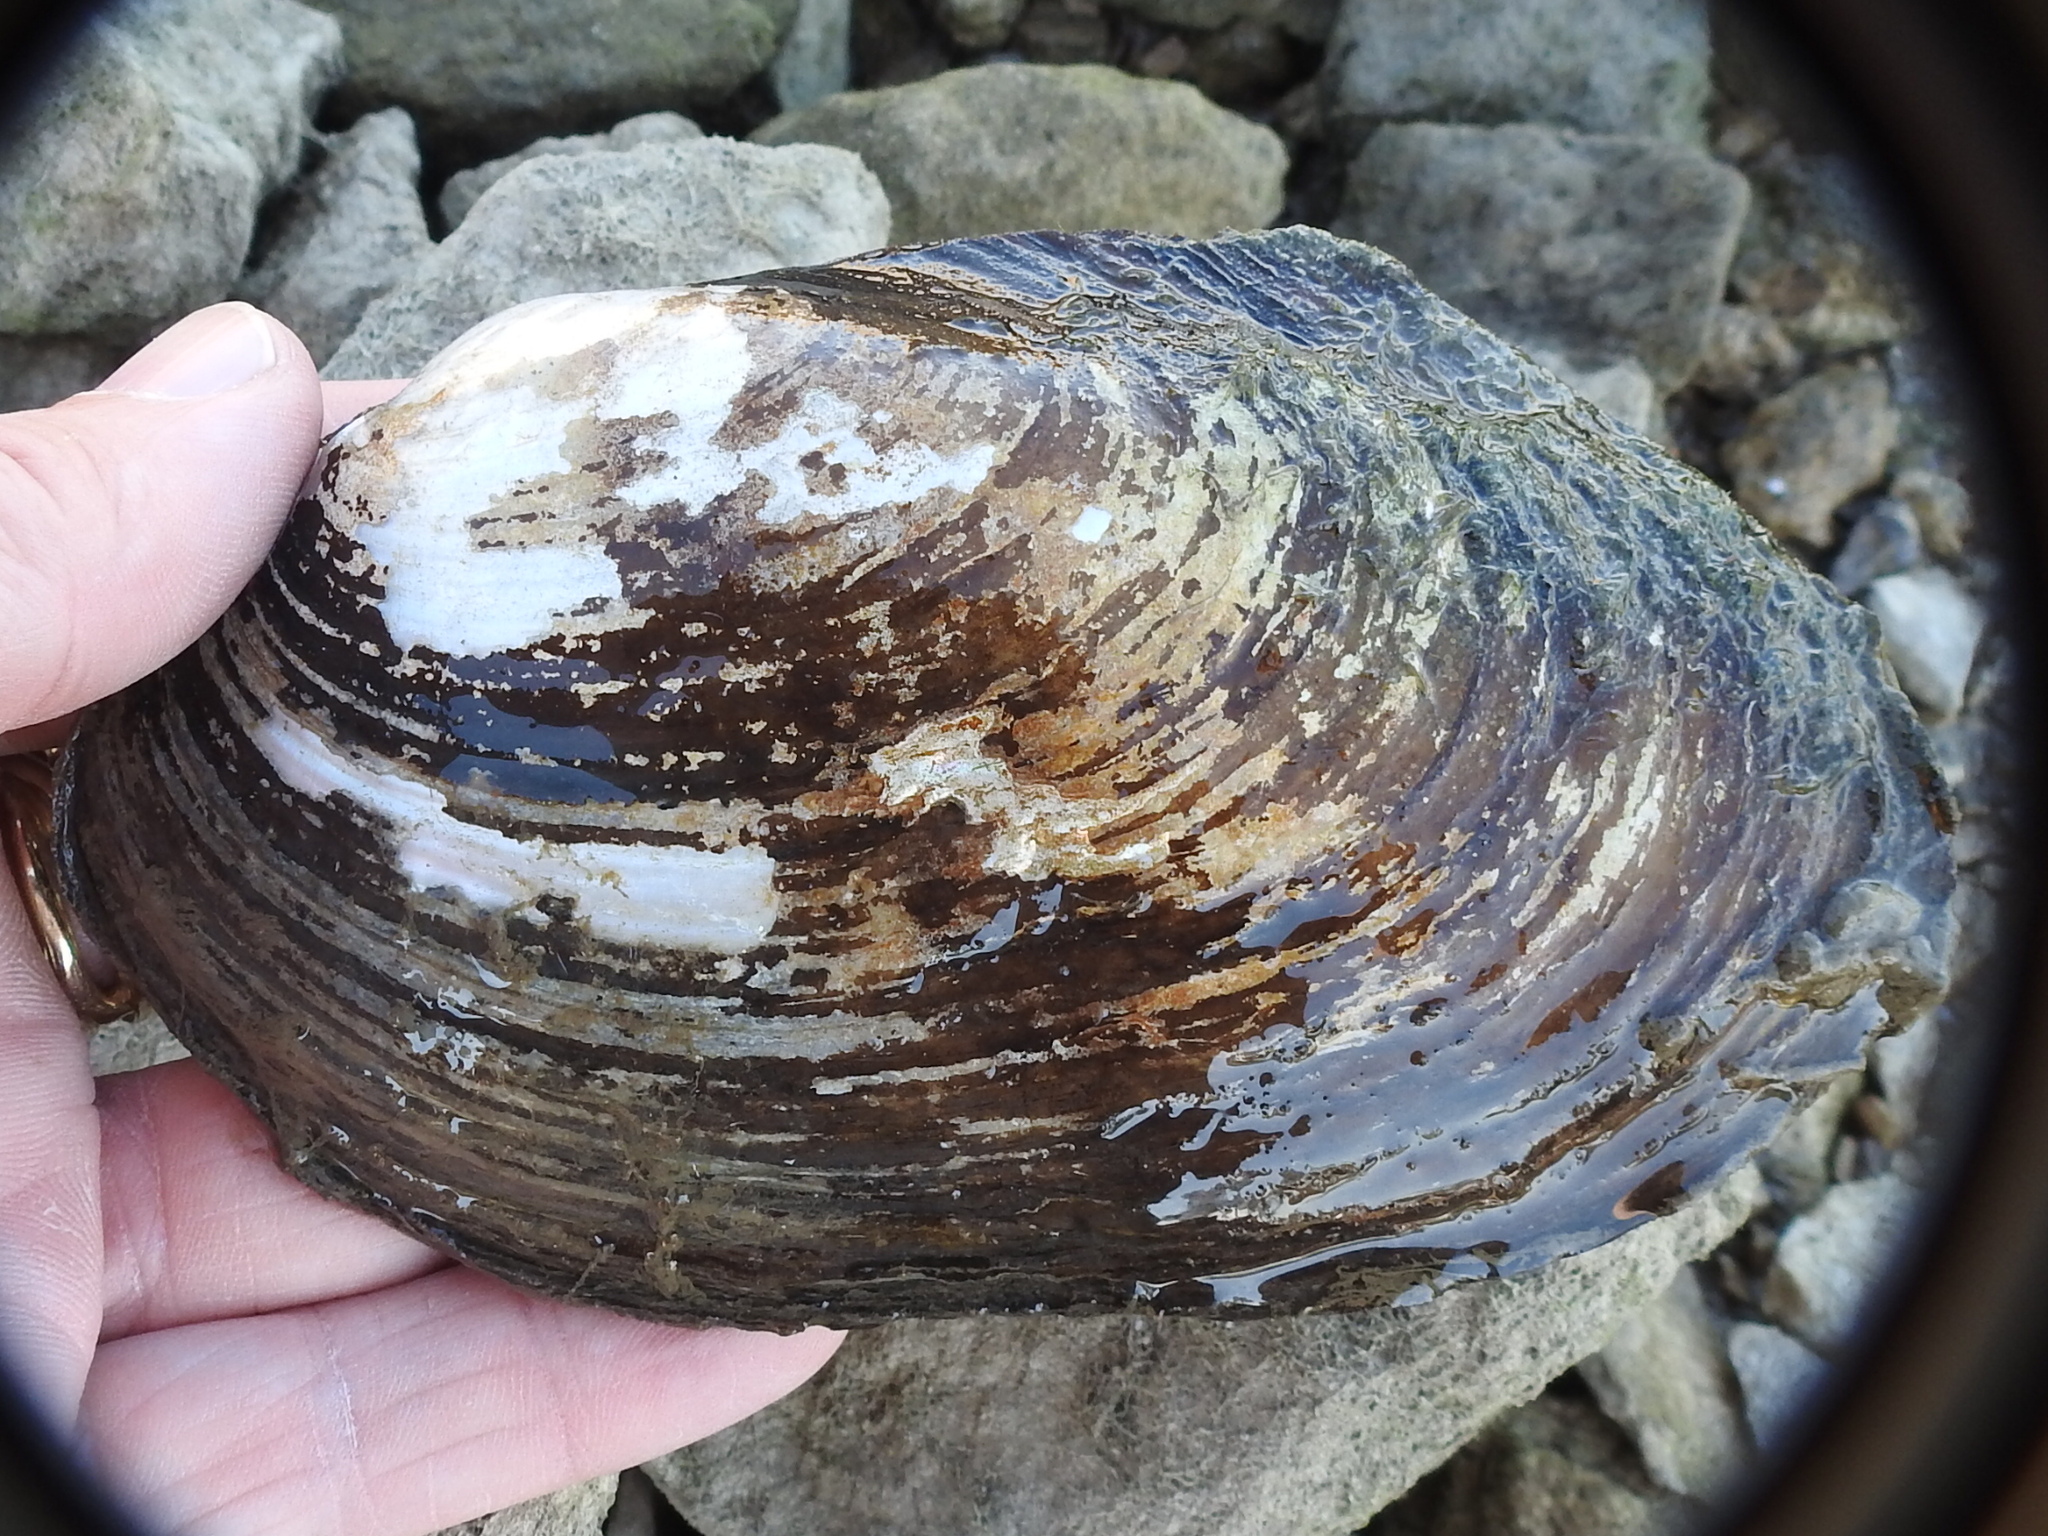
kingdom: Animalia
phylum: Mollusca
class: Bivalvia
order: Unionida
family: Unionidae
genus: Potamilus
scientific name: Potamilus fragilis
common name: Fragile papershell
